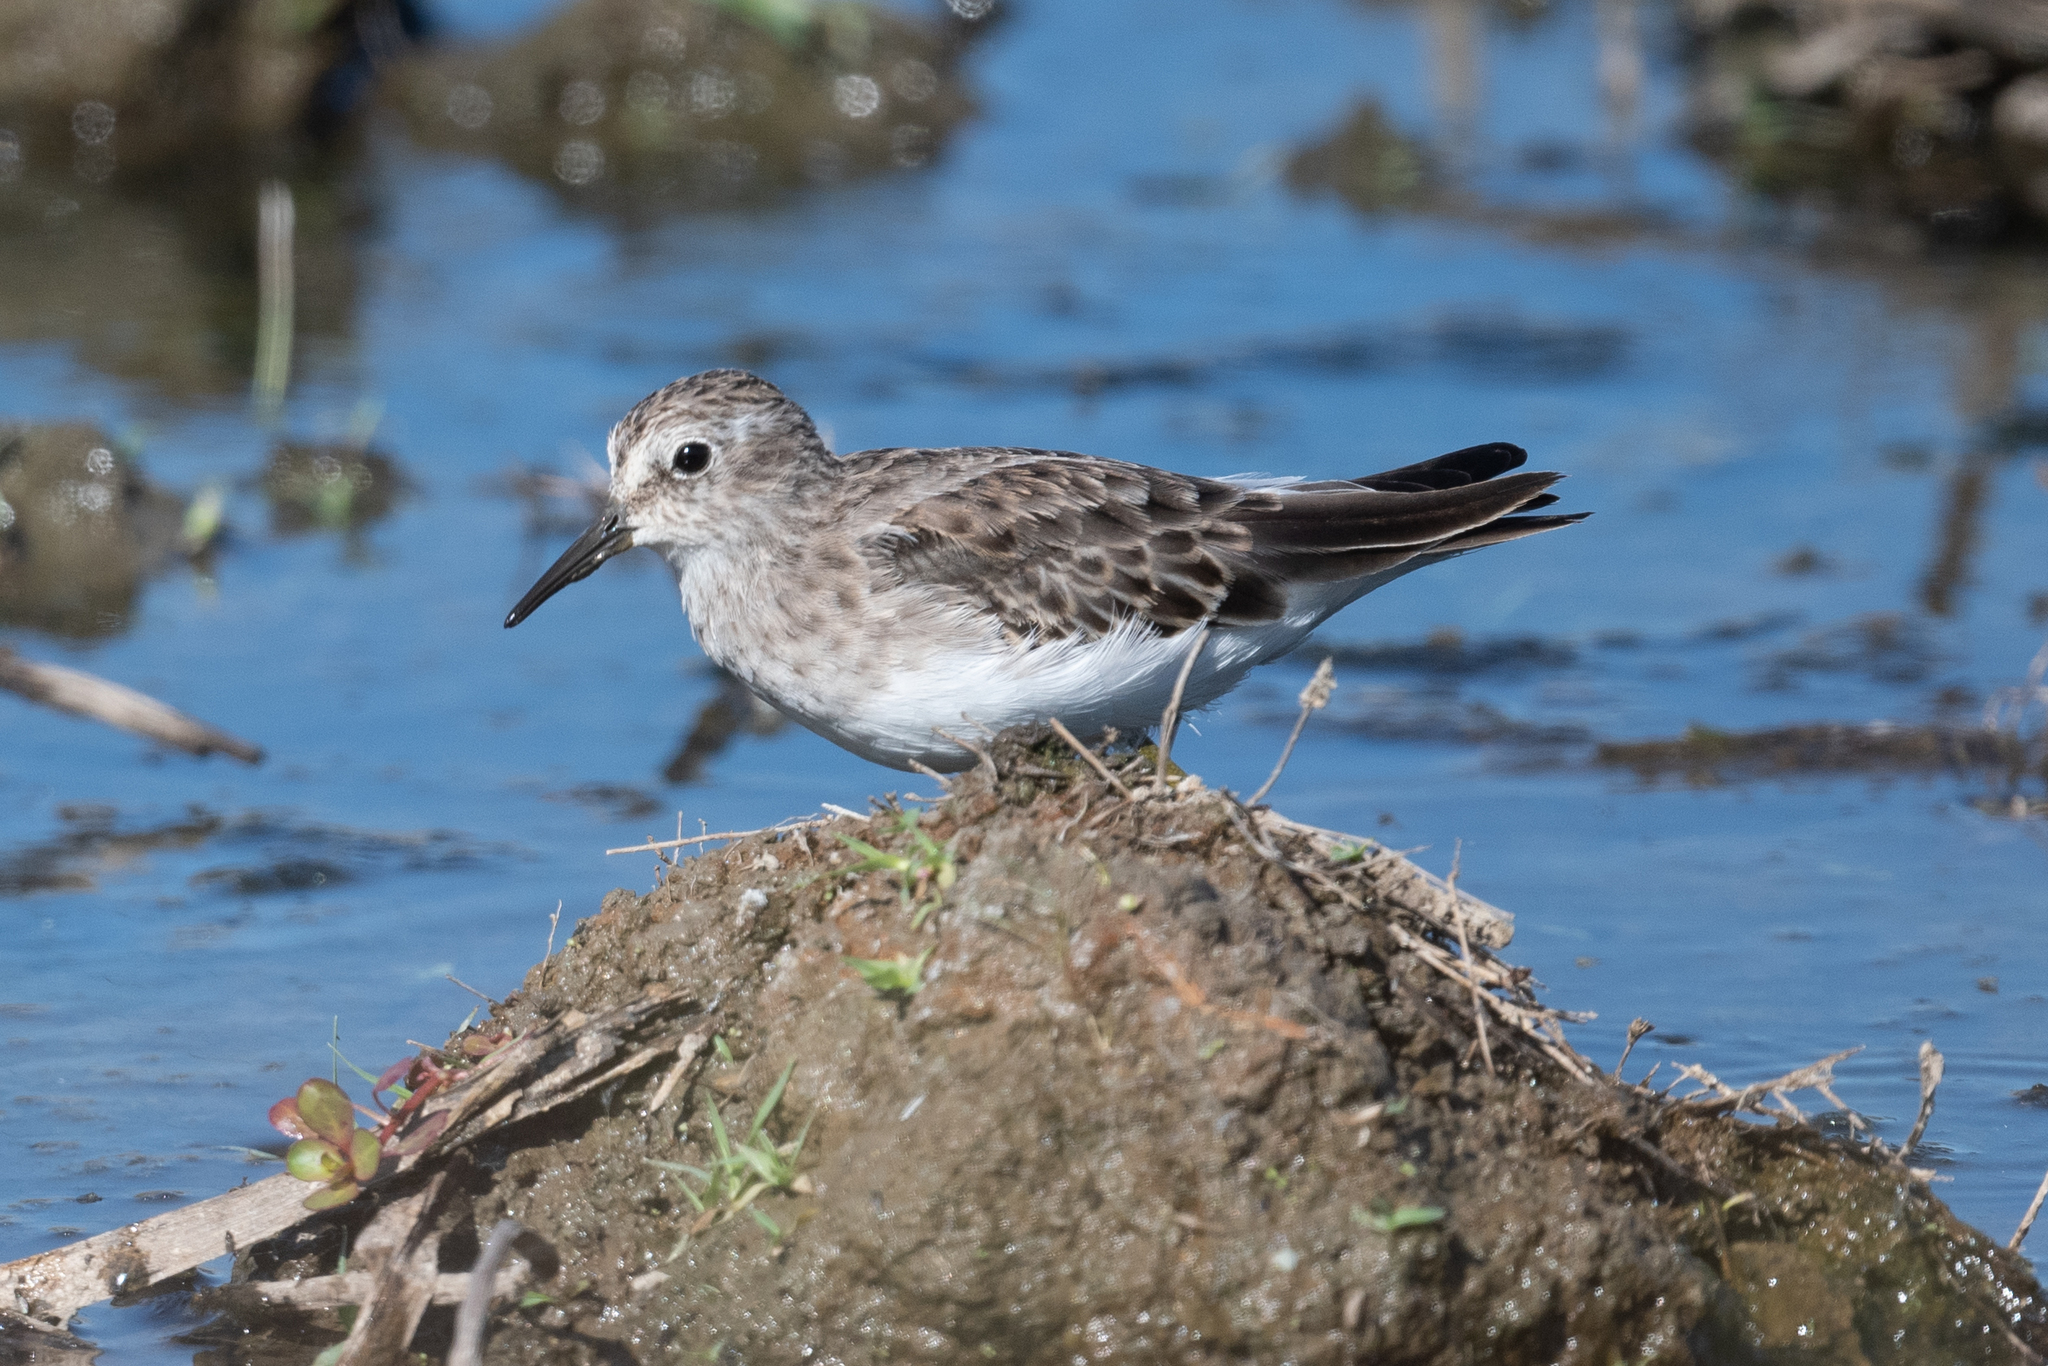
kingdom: Animalia
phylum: Chordata
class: Aves
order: Charadriiformes
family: Scolopacidae
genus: Calidris
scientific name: Calidris minutilla
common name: Least sandpiper
